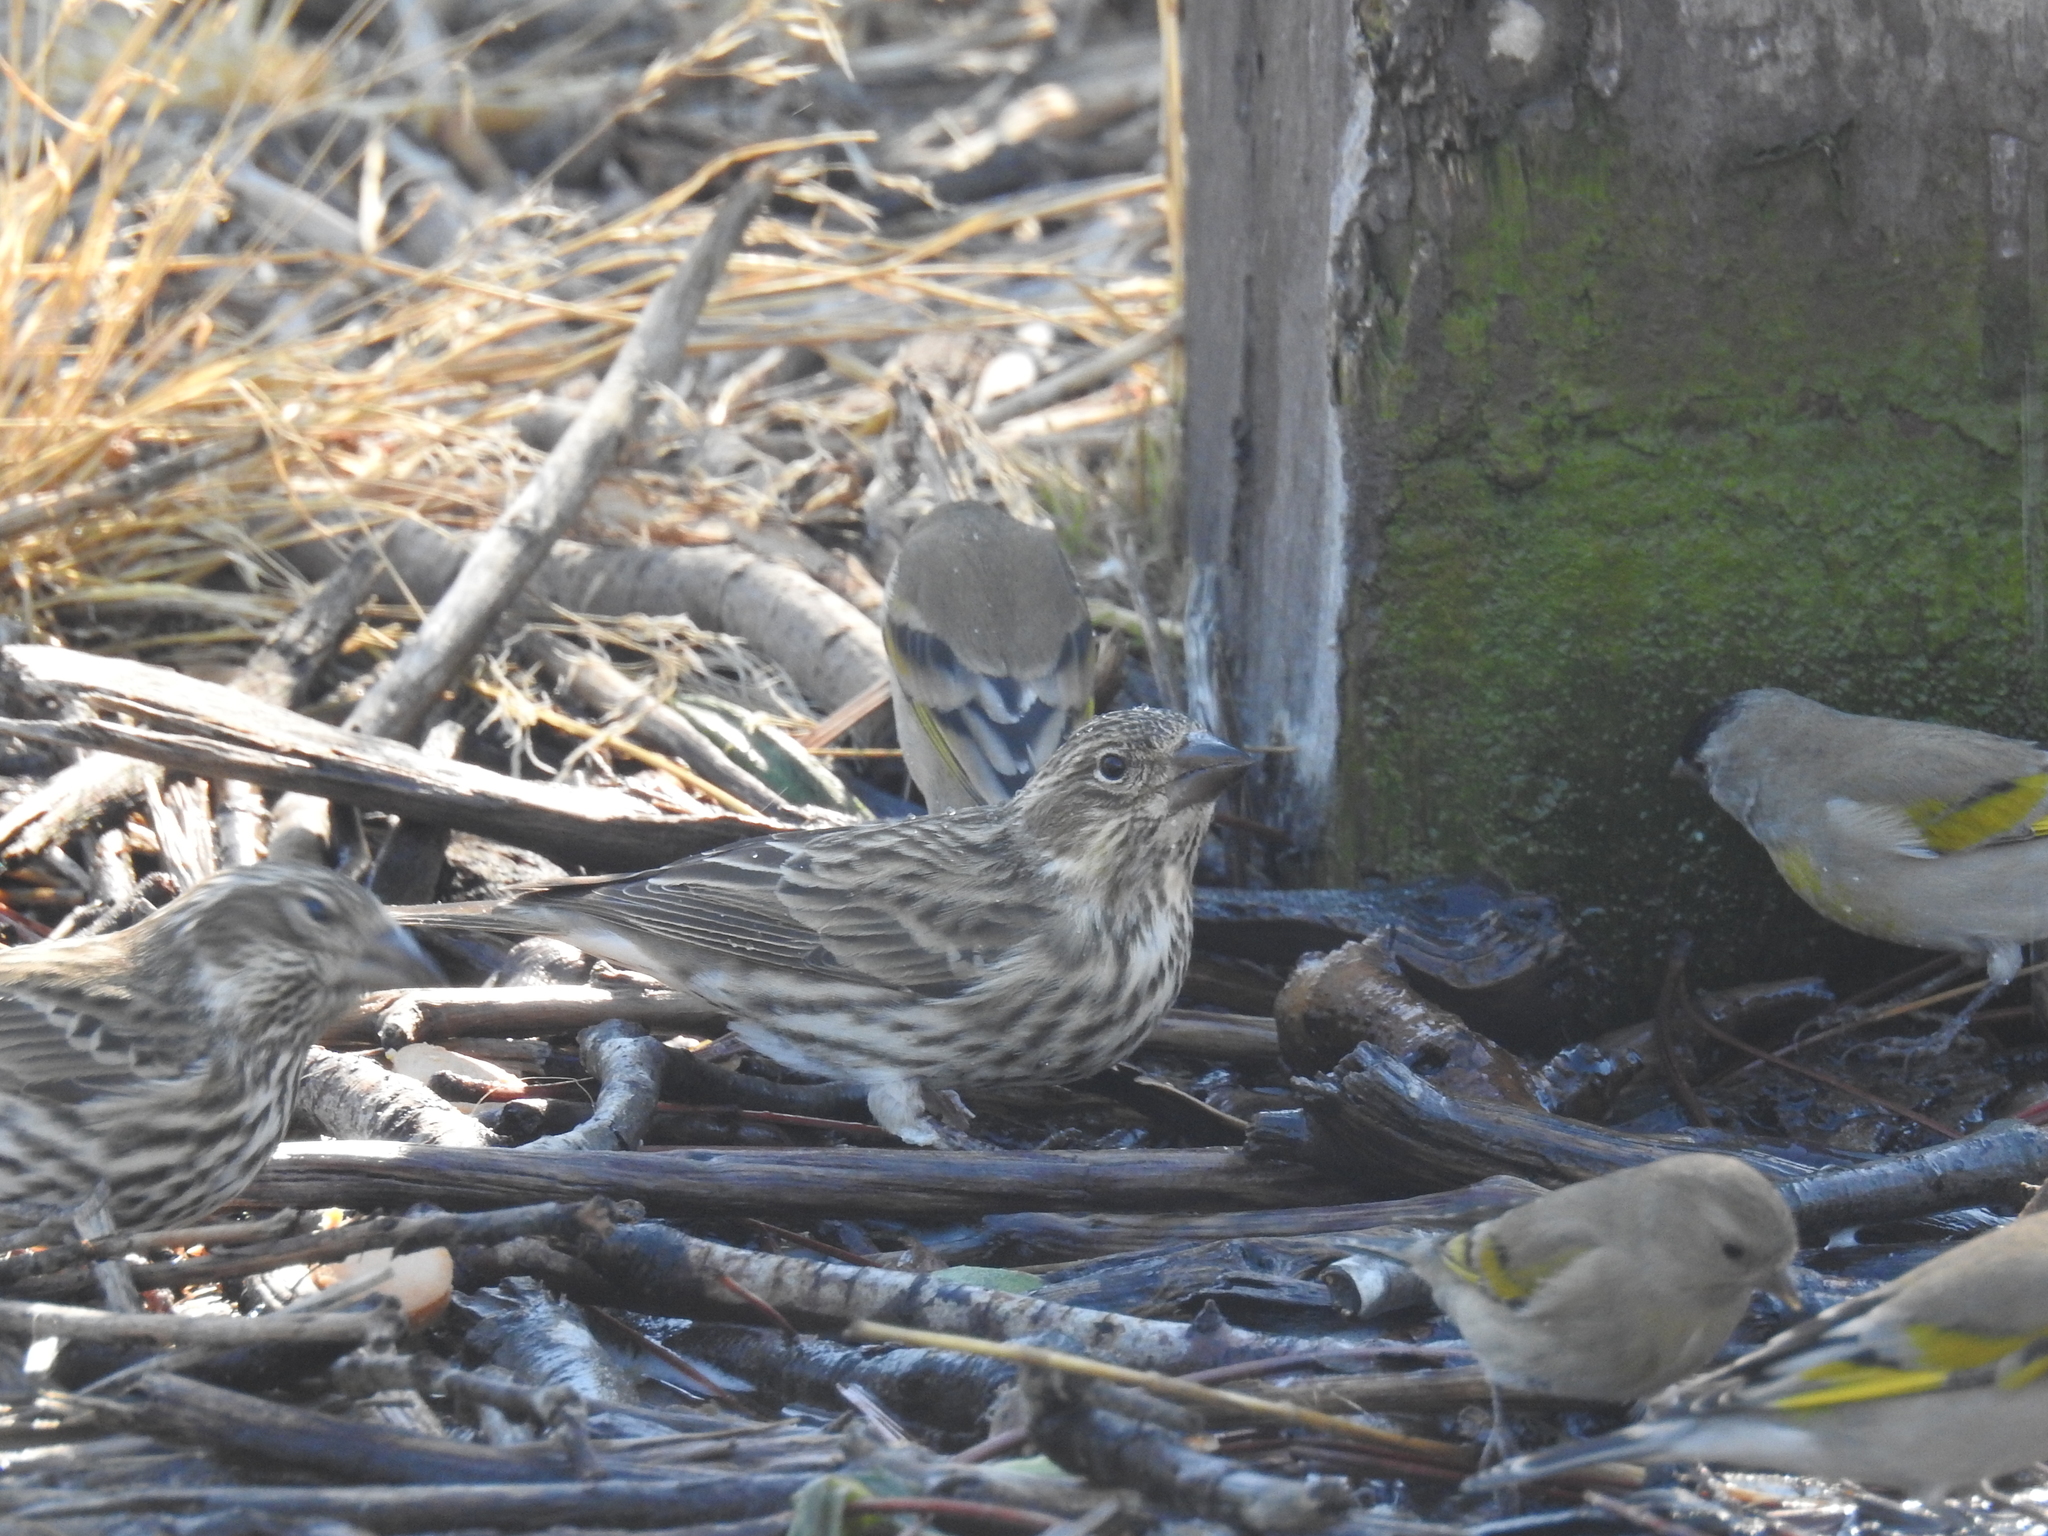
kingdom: Animalia
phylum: Chordata
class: Aves
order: Passeriformes
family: Fringillidae
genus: Haemorhous
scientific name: Haemorhous cassinii
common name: Cassin's finch
